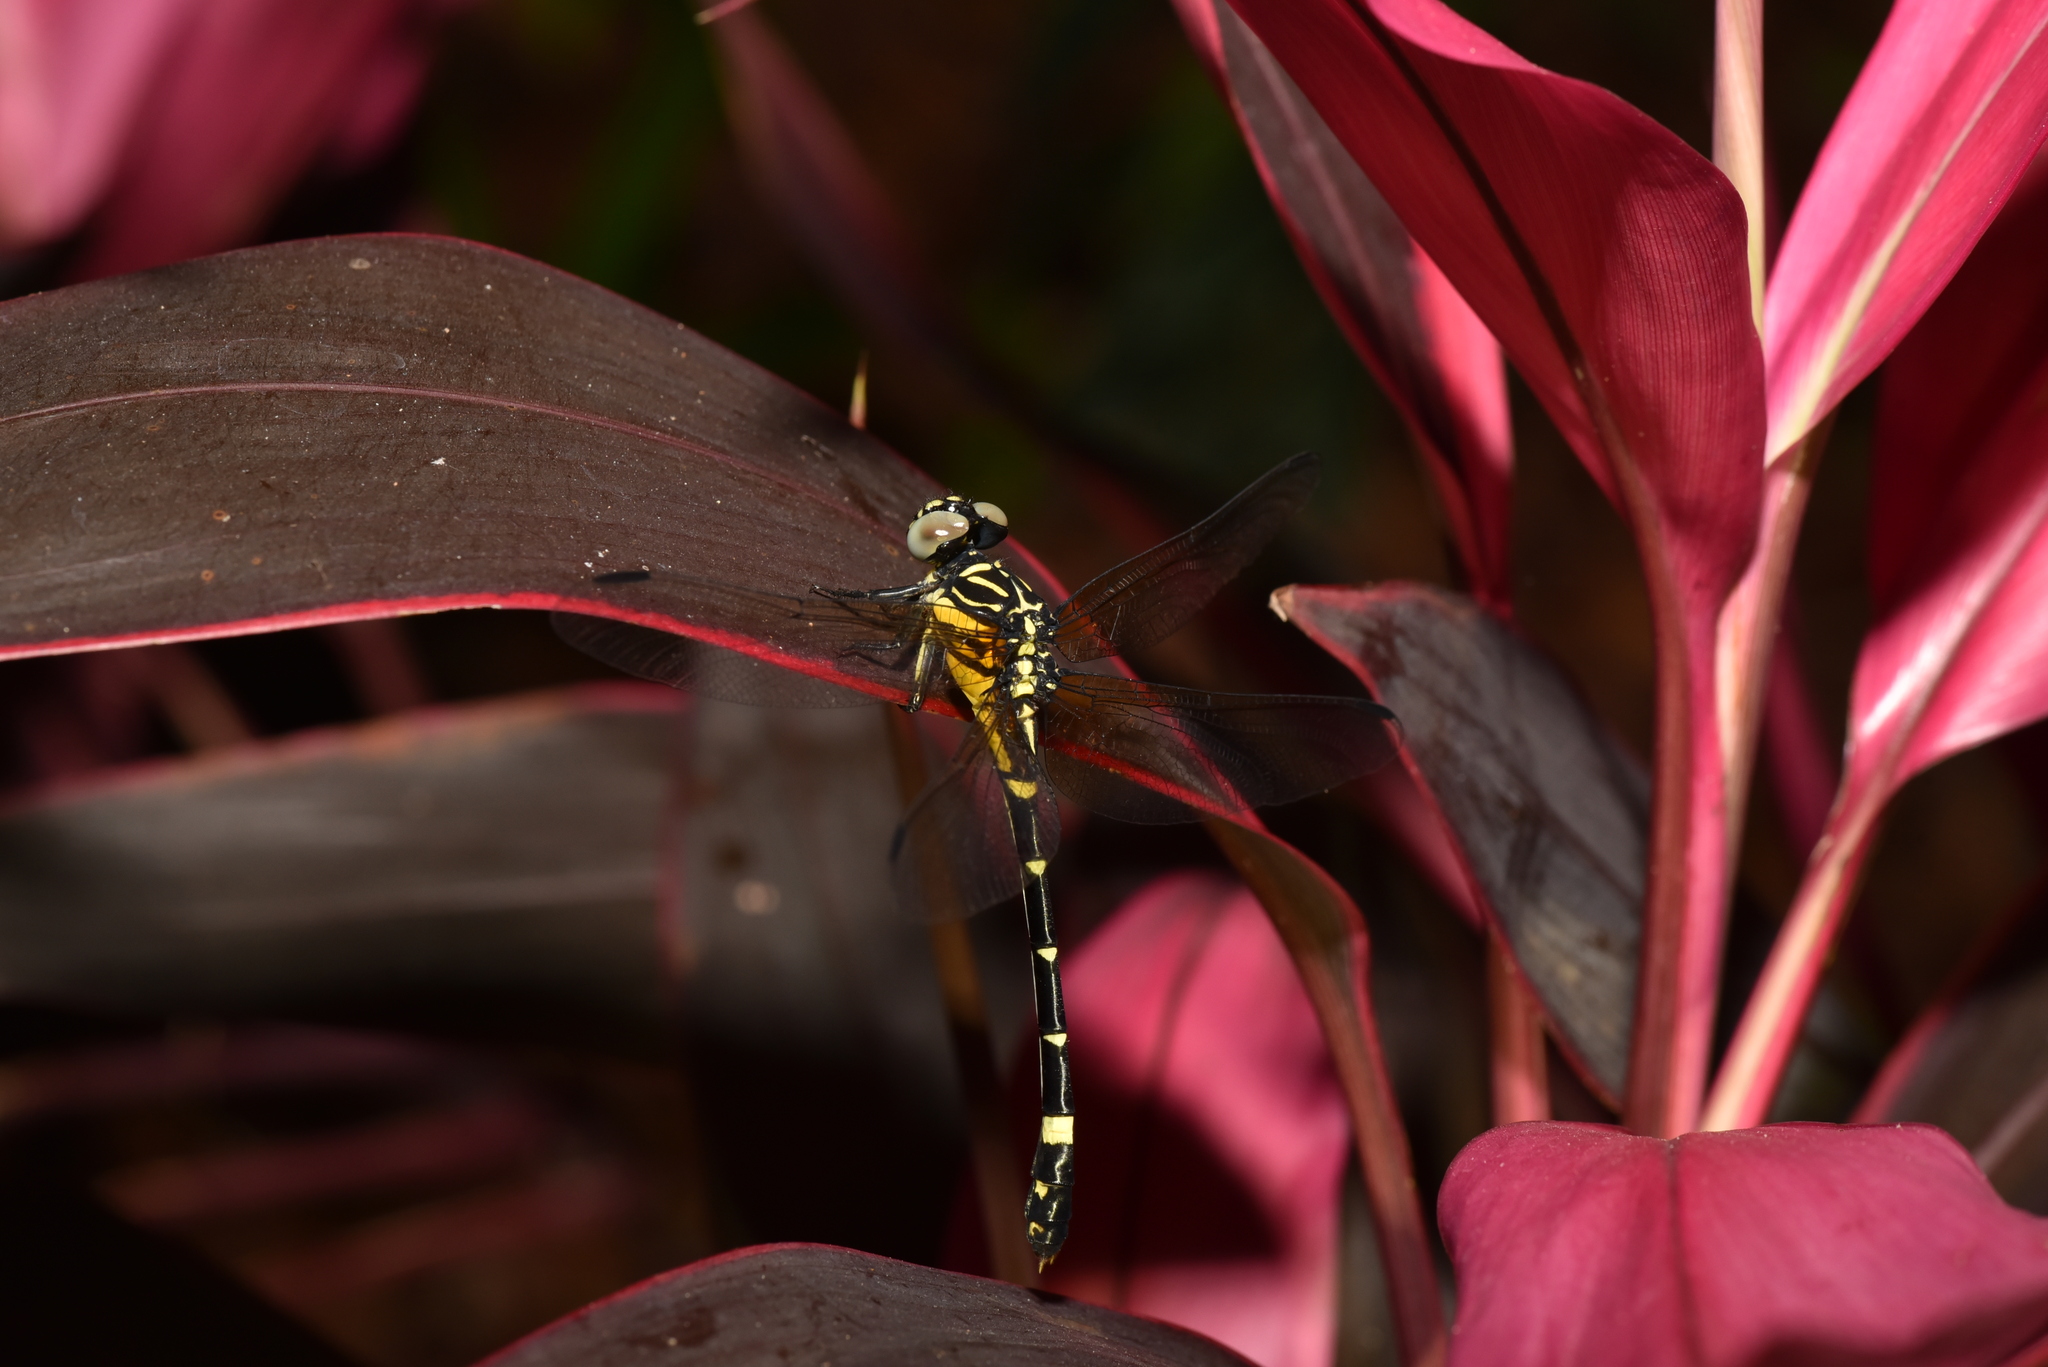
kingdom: Animalia
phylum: Arthropoda
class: Insecta
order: Odonata
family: Gomphidae
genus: Lamelligomphus
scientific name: Lamelligomphus formosanus
